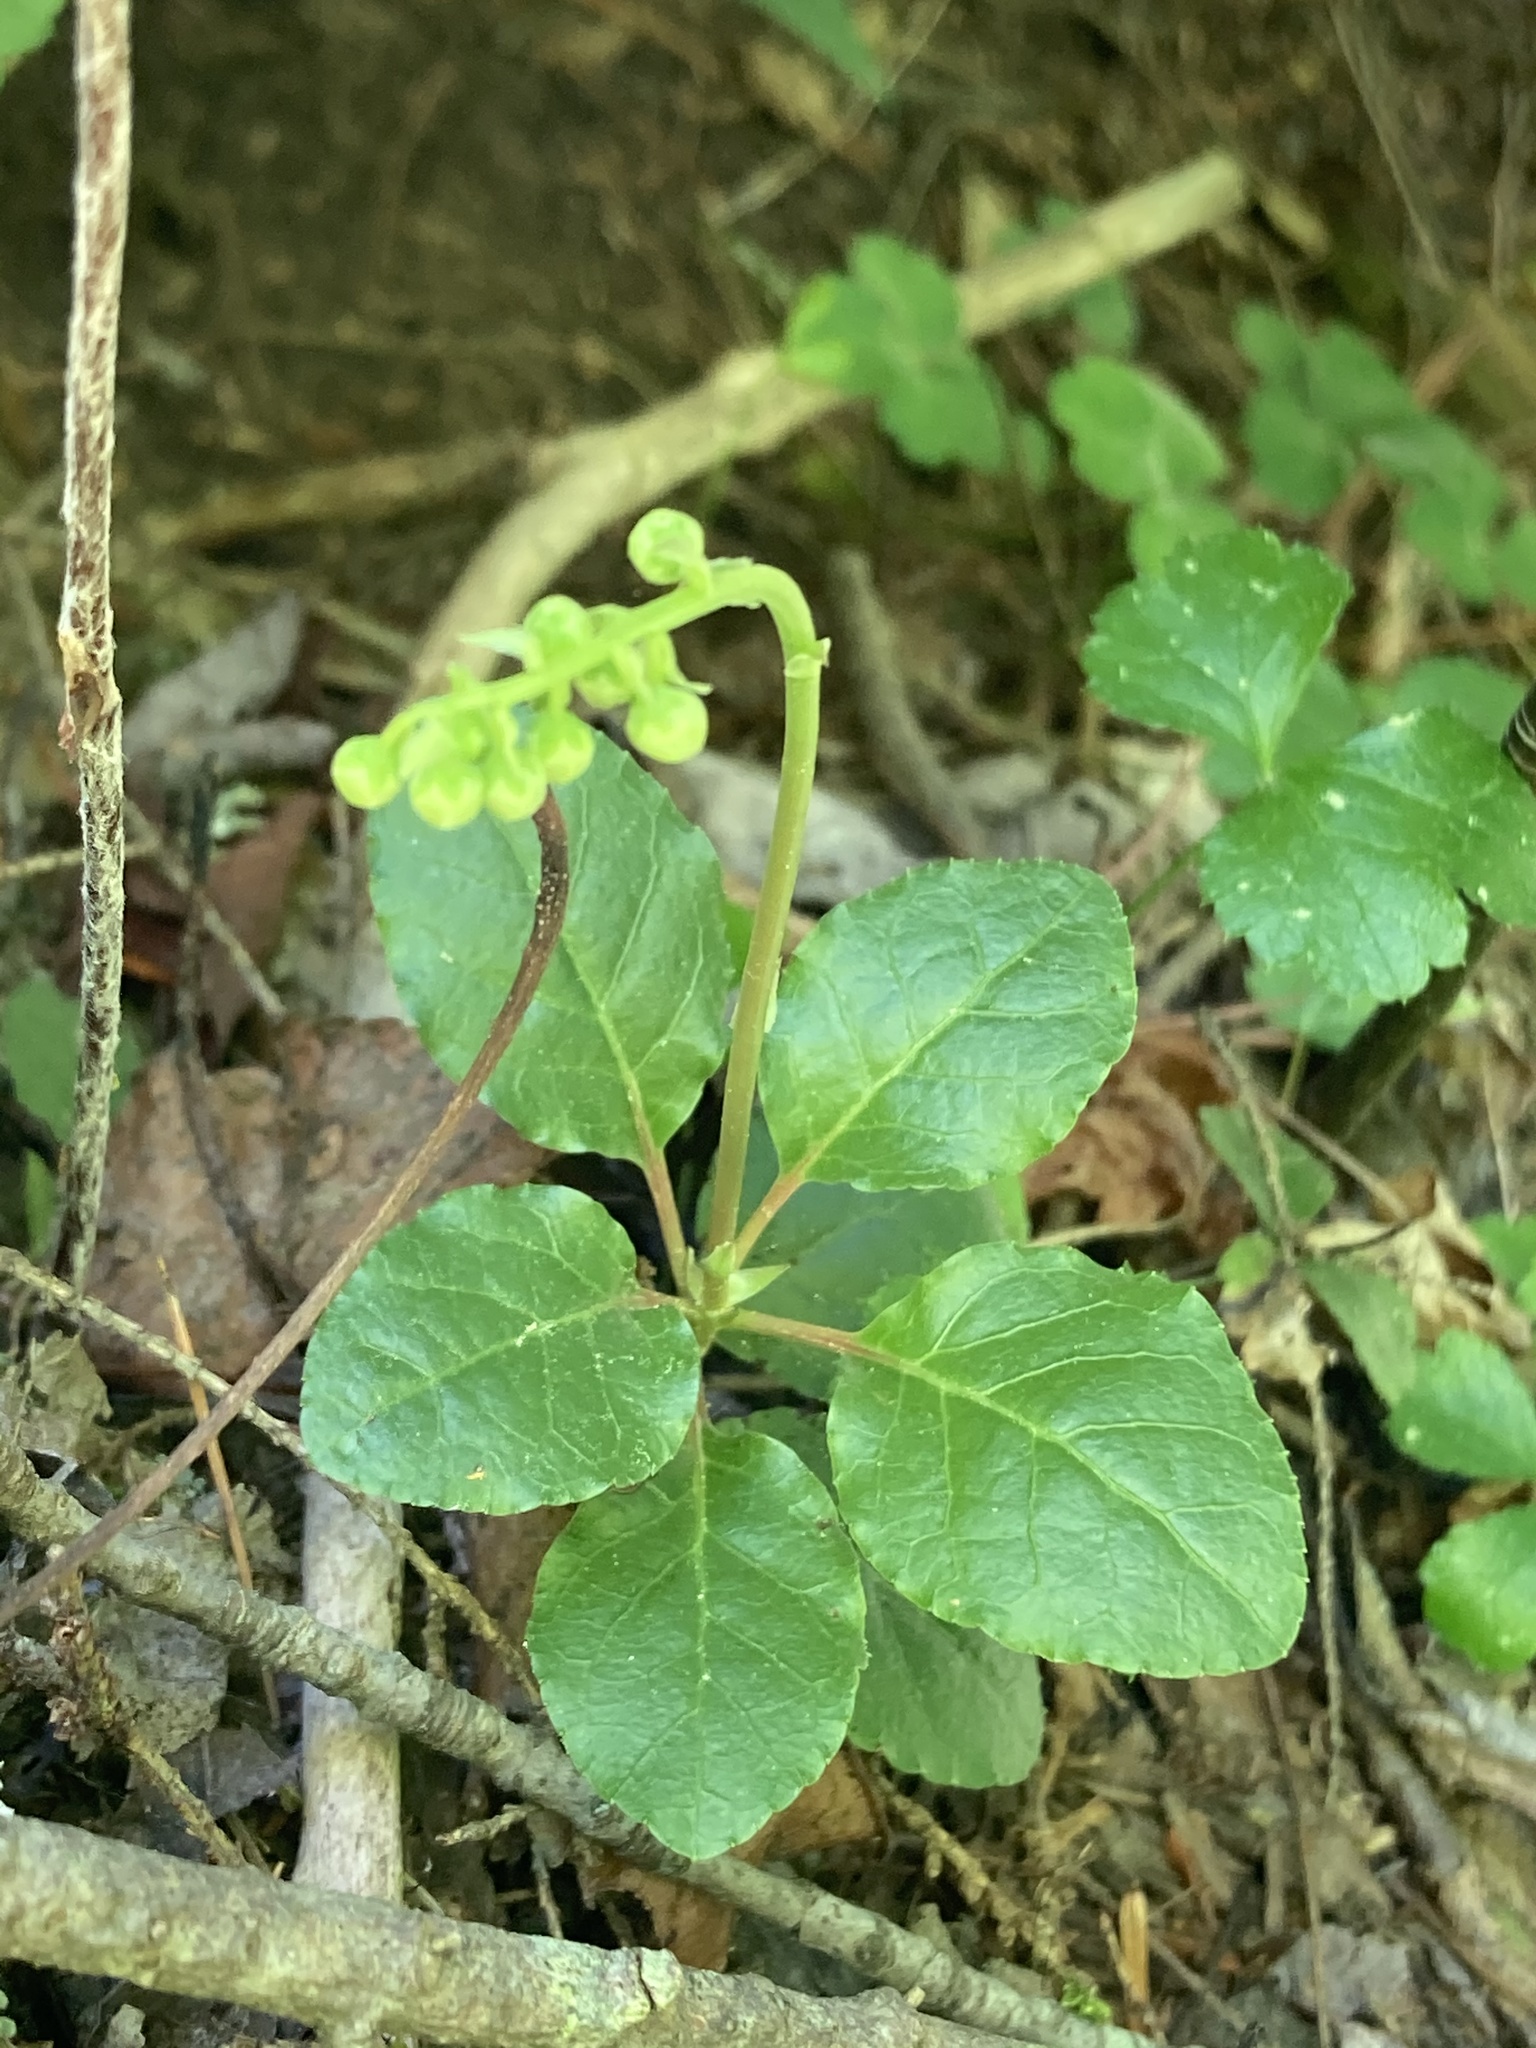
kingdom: Plantae
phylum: Tracheophyta
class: Magnoliopsida
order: Ericales
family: Ericaceae
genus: Orthilia
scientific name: Orthilia secunda
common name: One-sided orthilia
